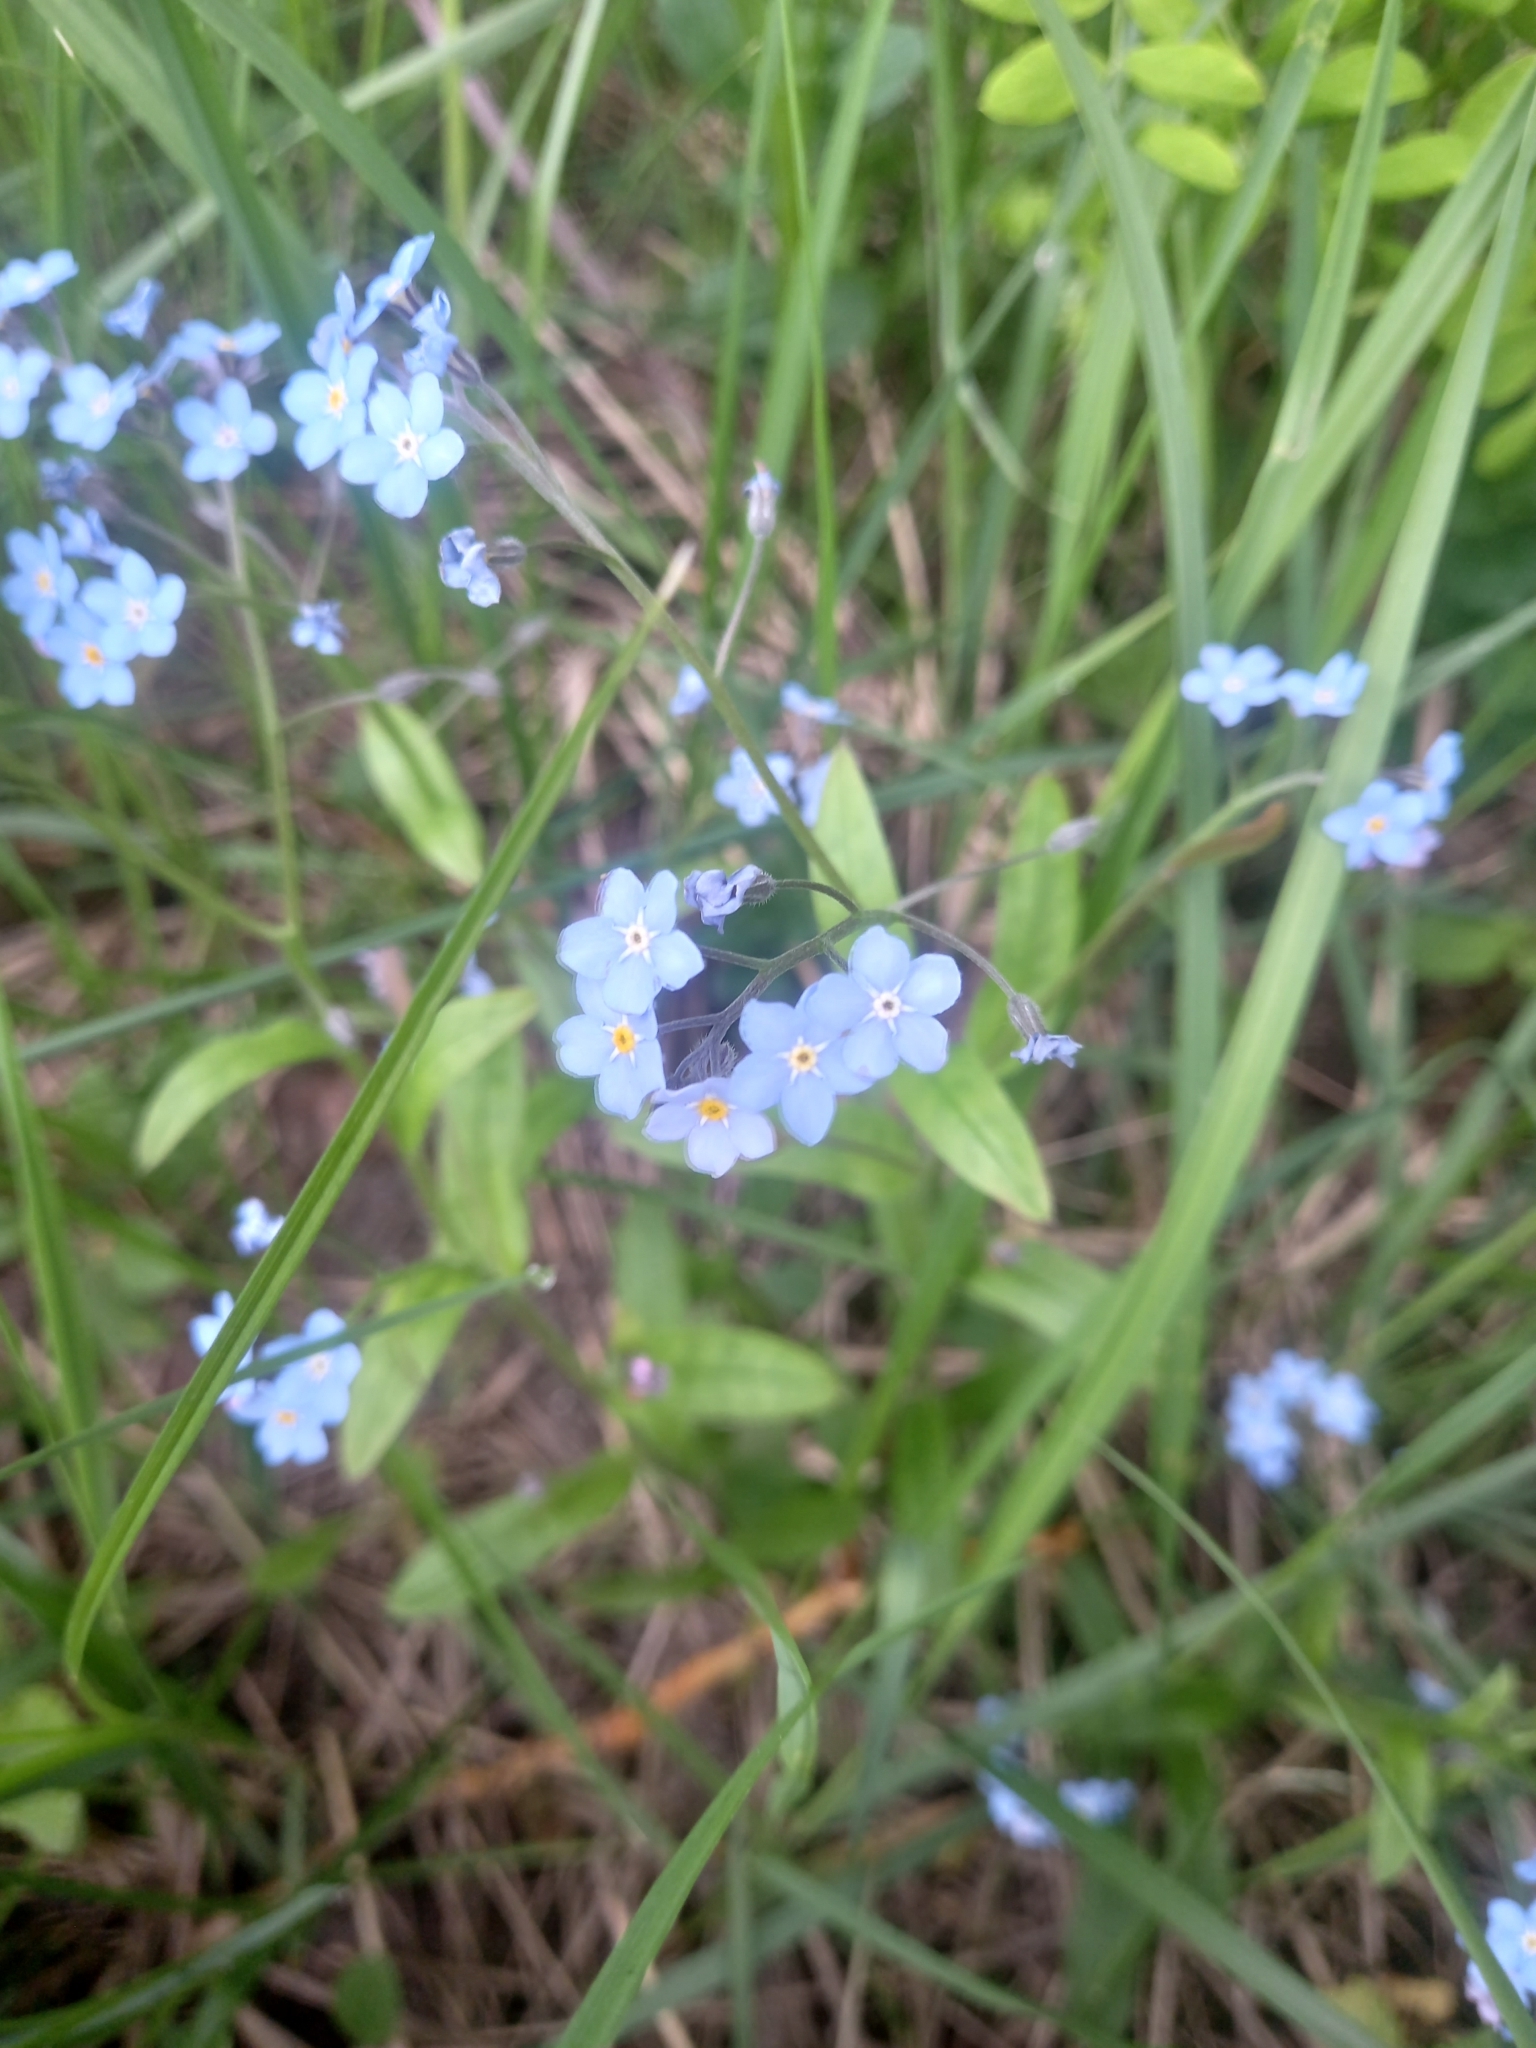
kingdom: Plantae
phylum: Tracheophyta
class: Magnoliopsida
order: Boraginales
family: Boraginaceae
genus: Myosotis
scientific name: Myosotis sylvatica
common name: Wood forget-me-not
